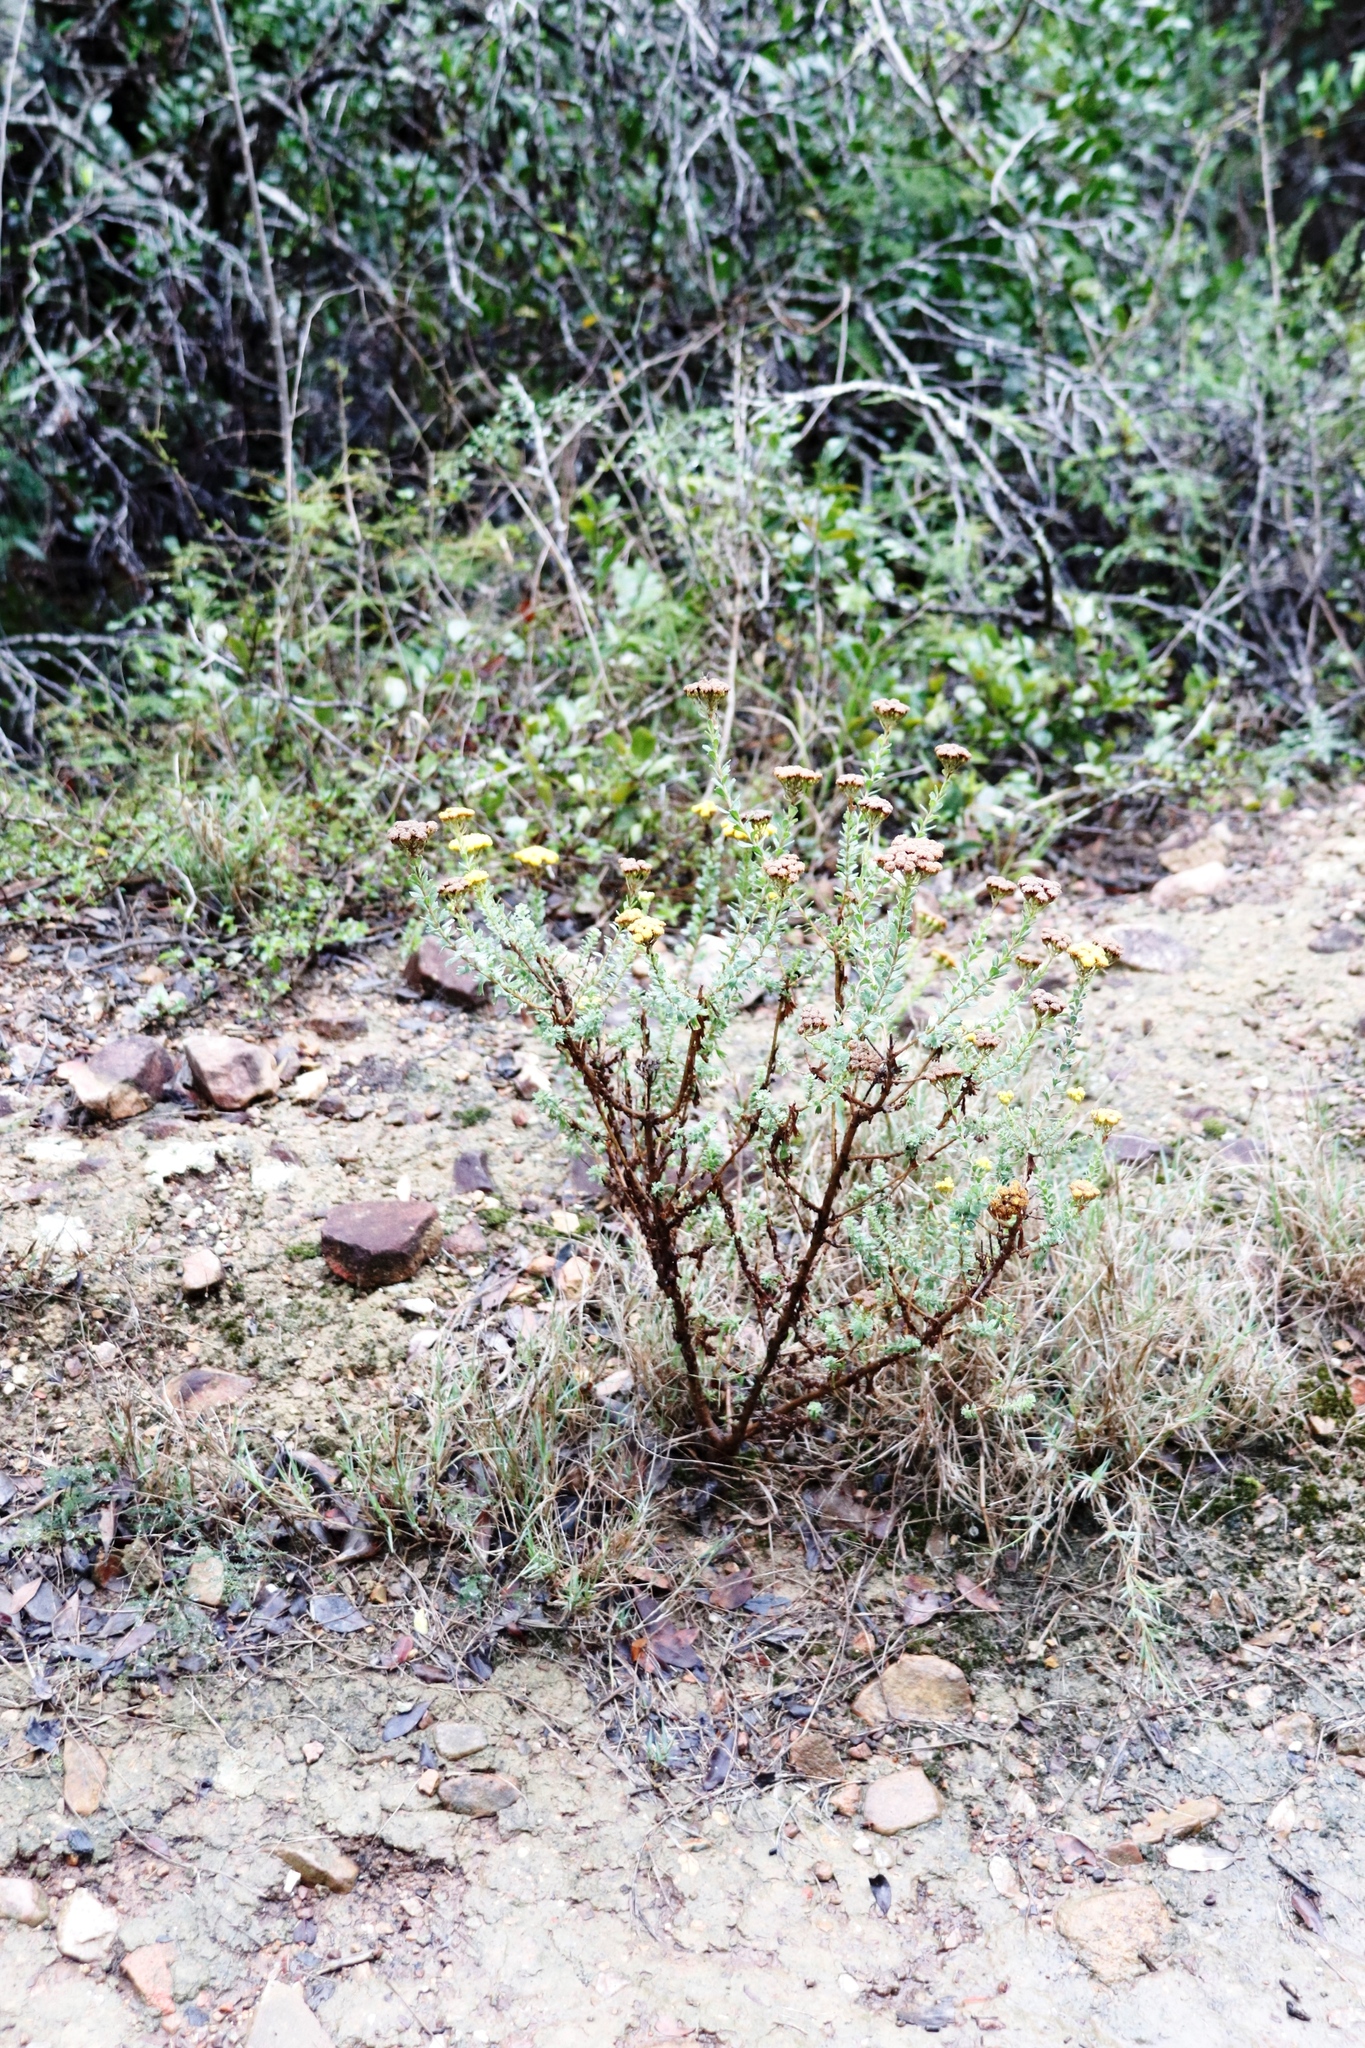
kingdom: Plantae
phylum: Tracheophyta
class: Magnoliopsida
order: Asterales
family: Asteraceae
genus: Athanasia
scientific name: Athanasia trifurcata
